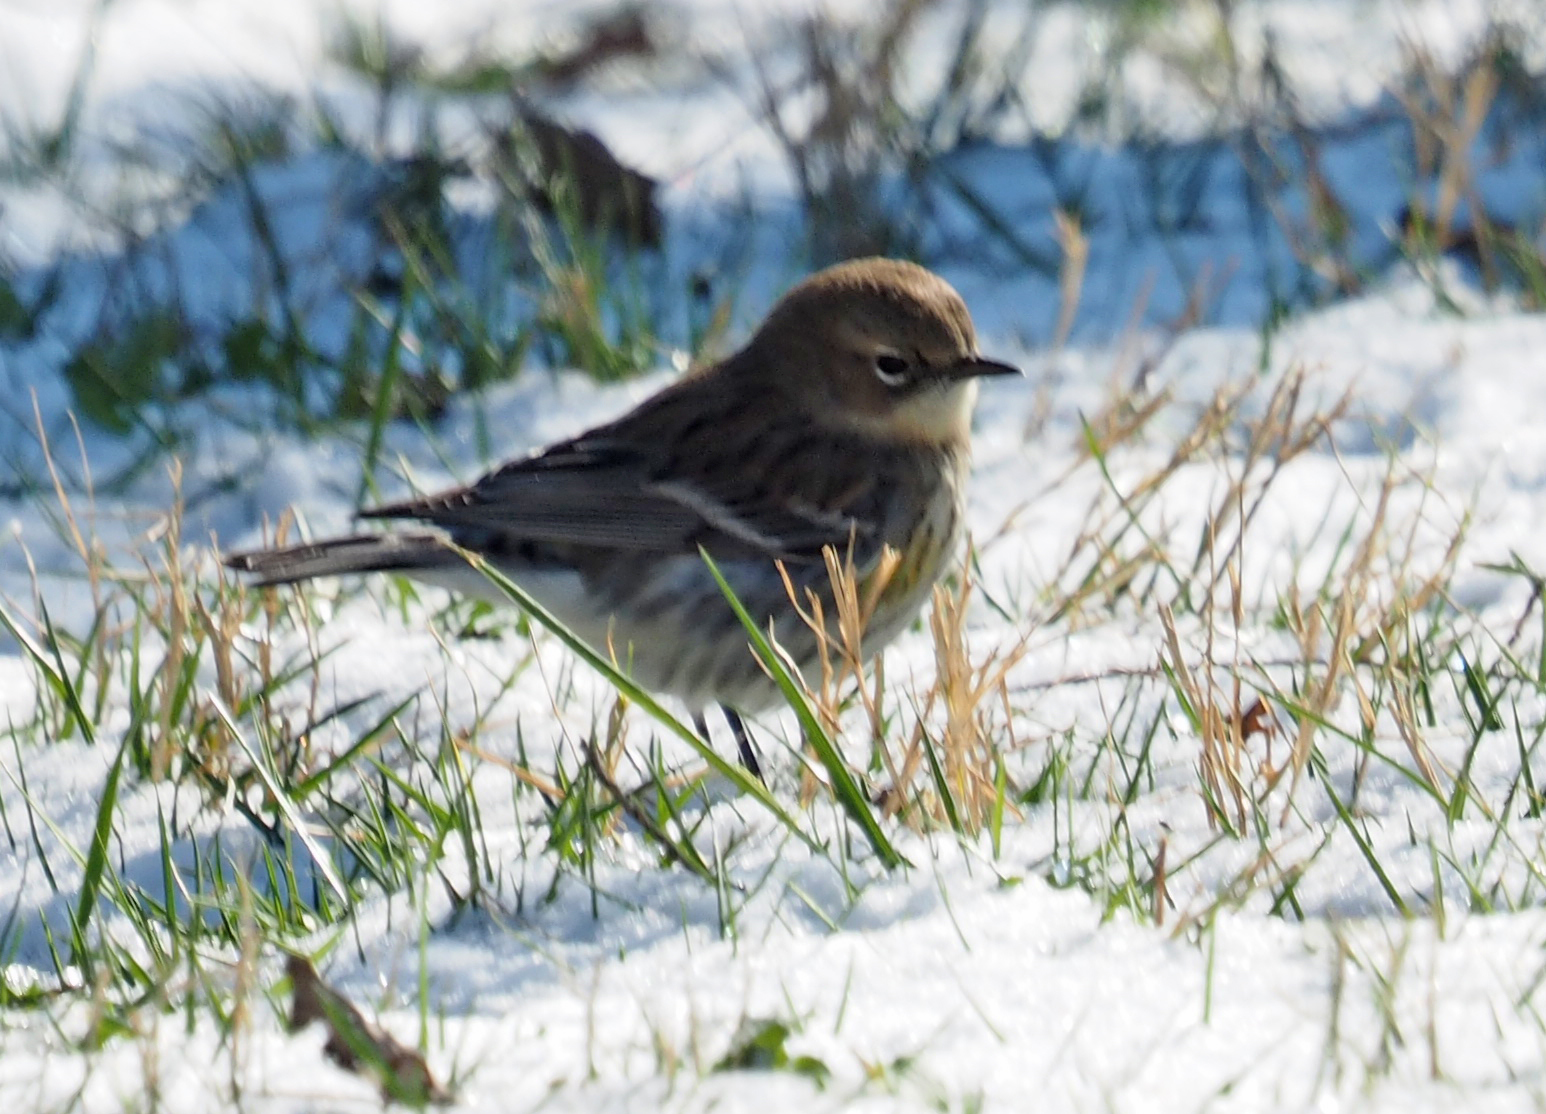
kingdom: Animalia
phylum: Chordata
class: Aves
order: Passeriformes
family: Parulidae
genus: Setophaga
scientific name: Setophaga coronata
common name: Myrtle warbler
